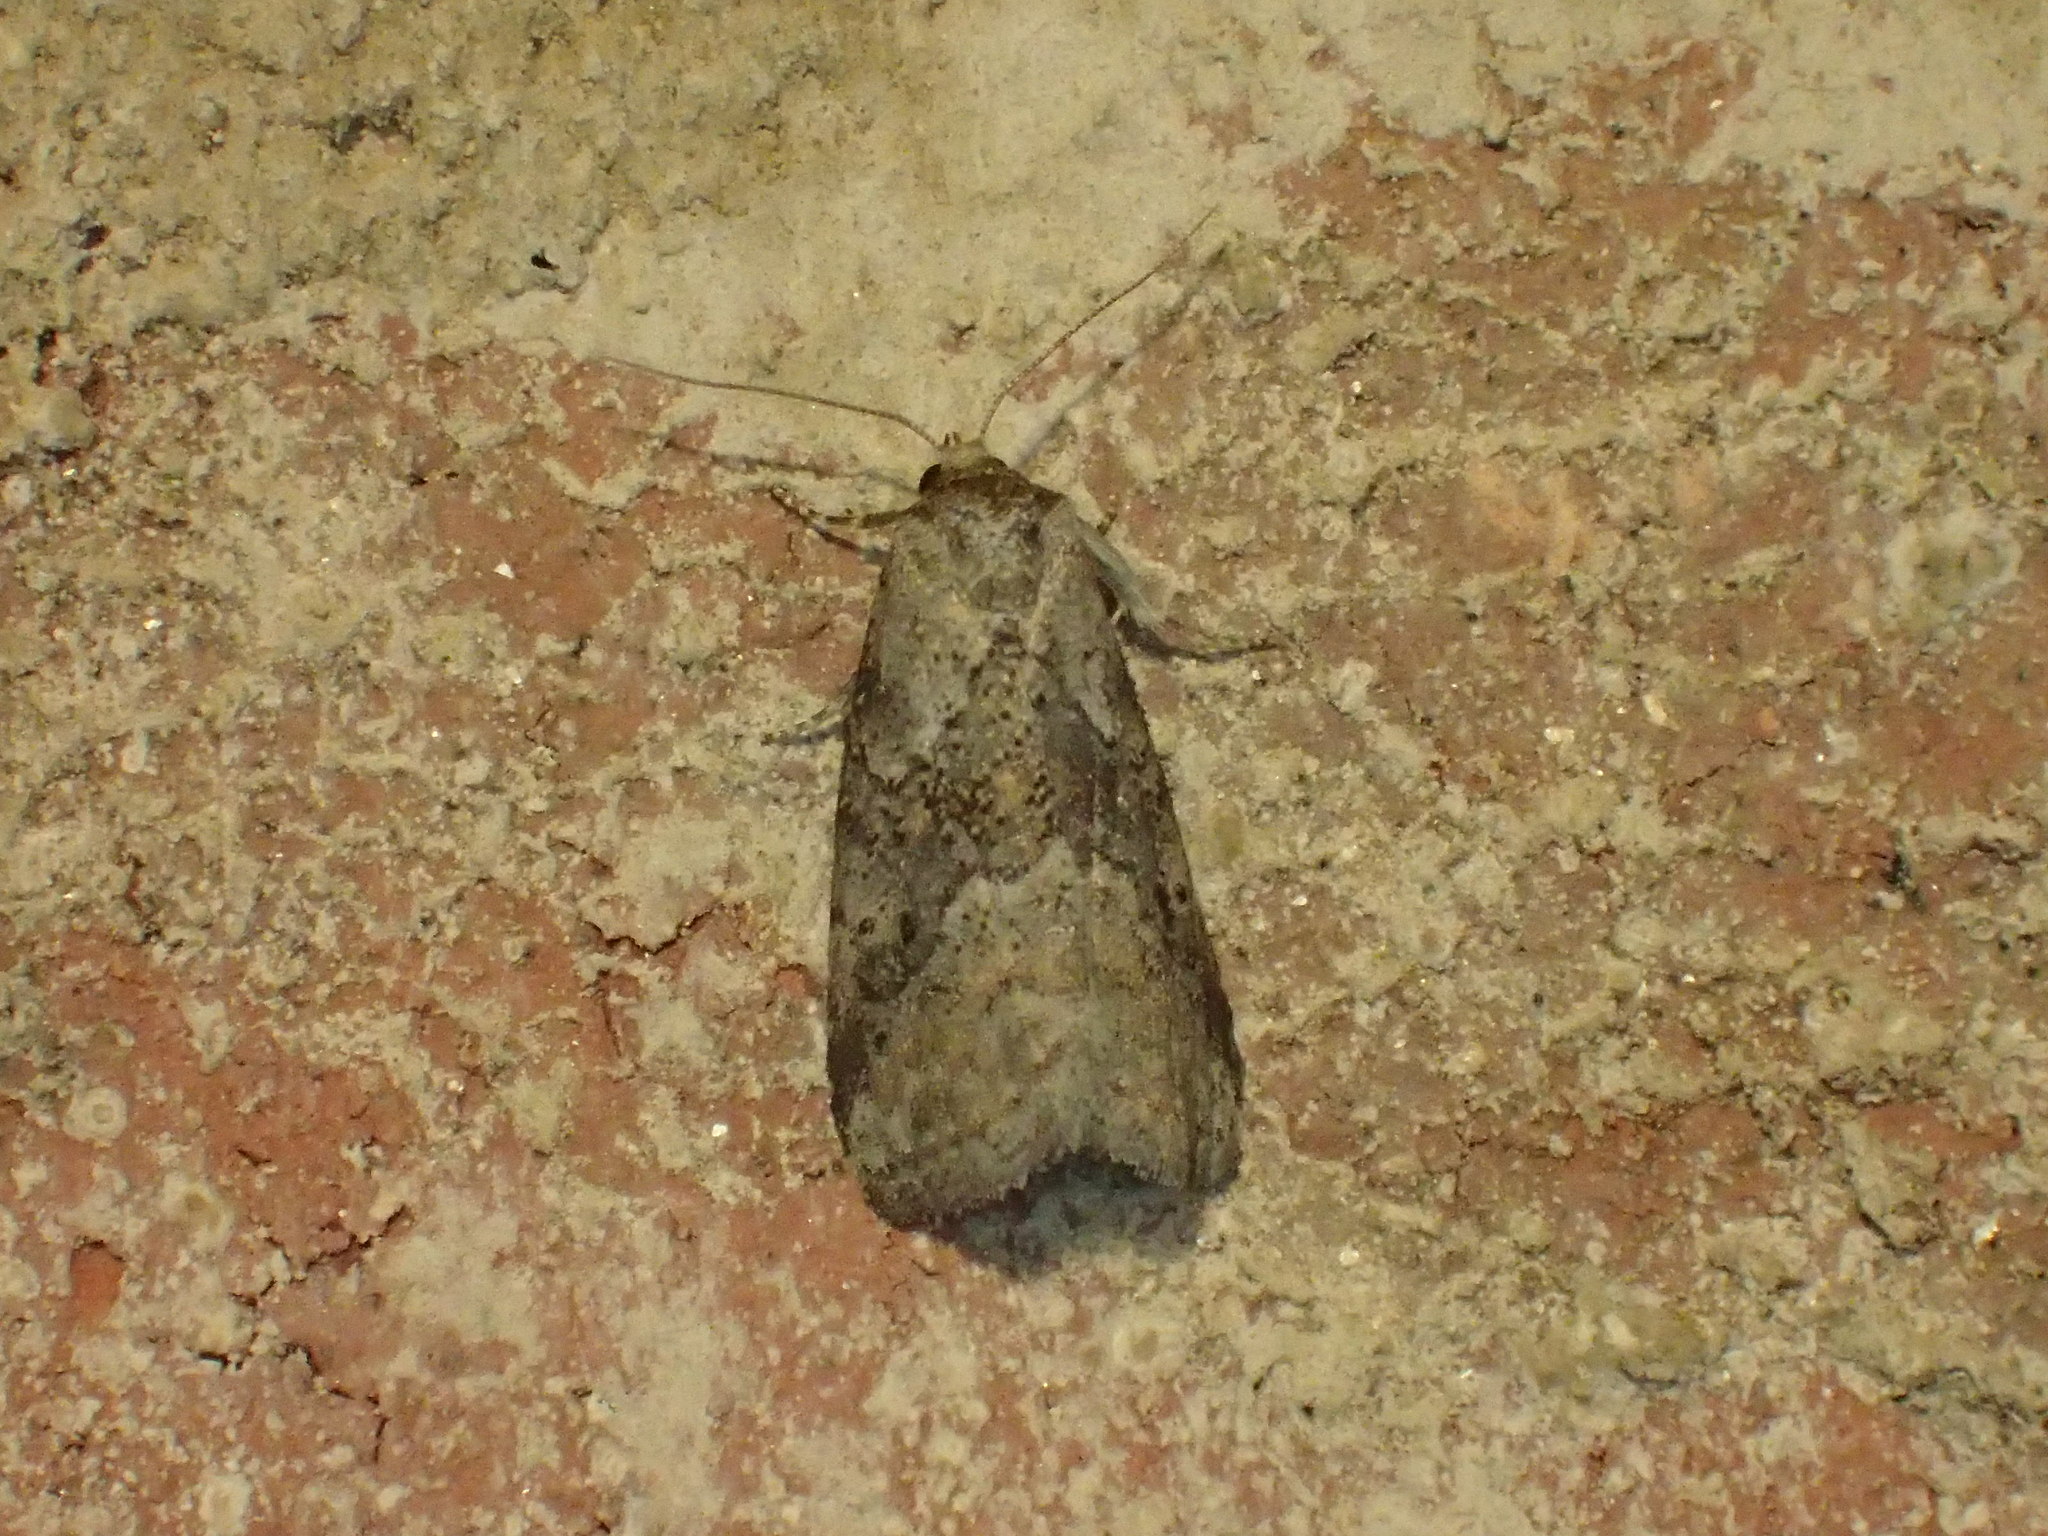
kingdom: Animalia
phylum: Arthropoda
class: Insecta
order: Lepidoptera
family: Erebidae
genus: Hyperstrotia
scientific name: Hyperstrotia nana
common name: White-lined graylet
